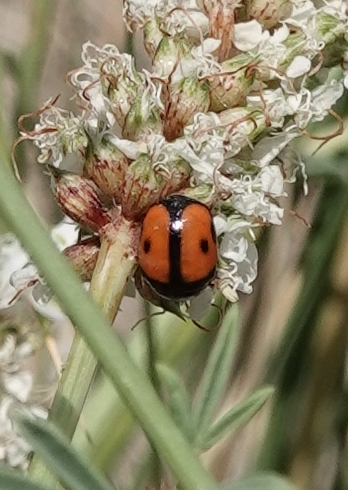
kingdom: Animalia
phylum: Arthropoda
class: Insecta
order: Coleoptera
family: Coccinellidae
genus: Brachiacantha
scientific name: Brachiacantha tau
